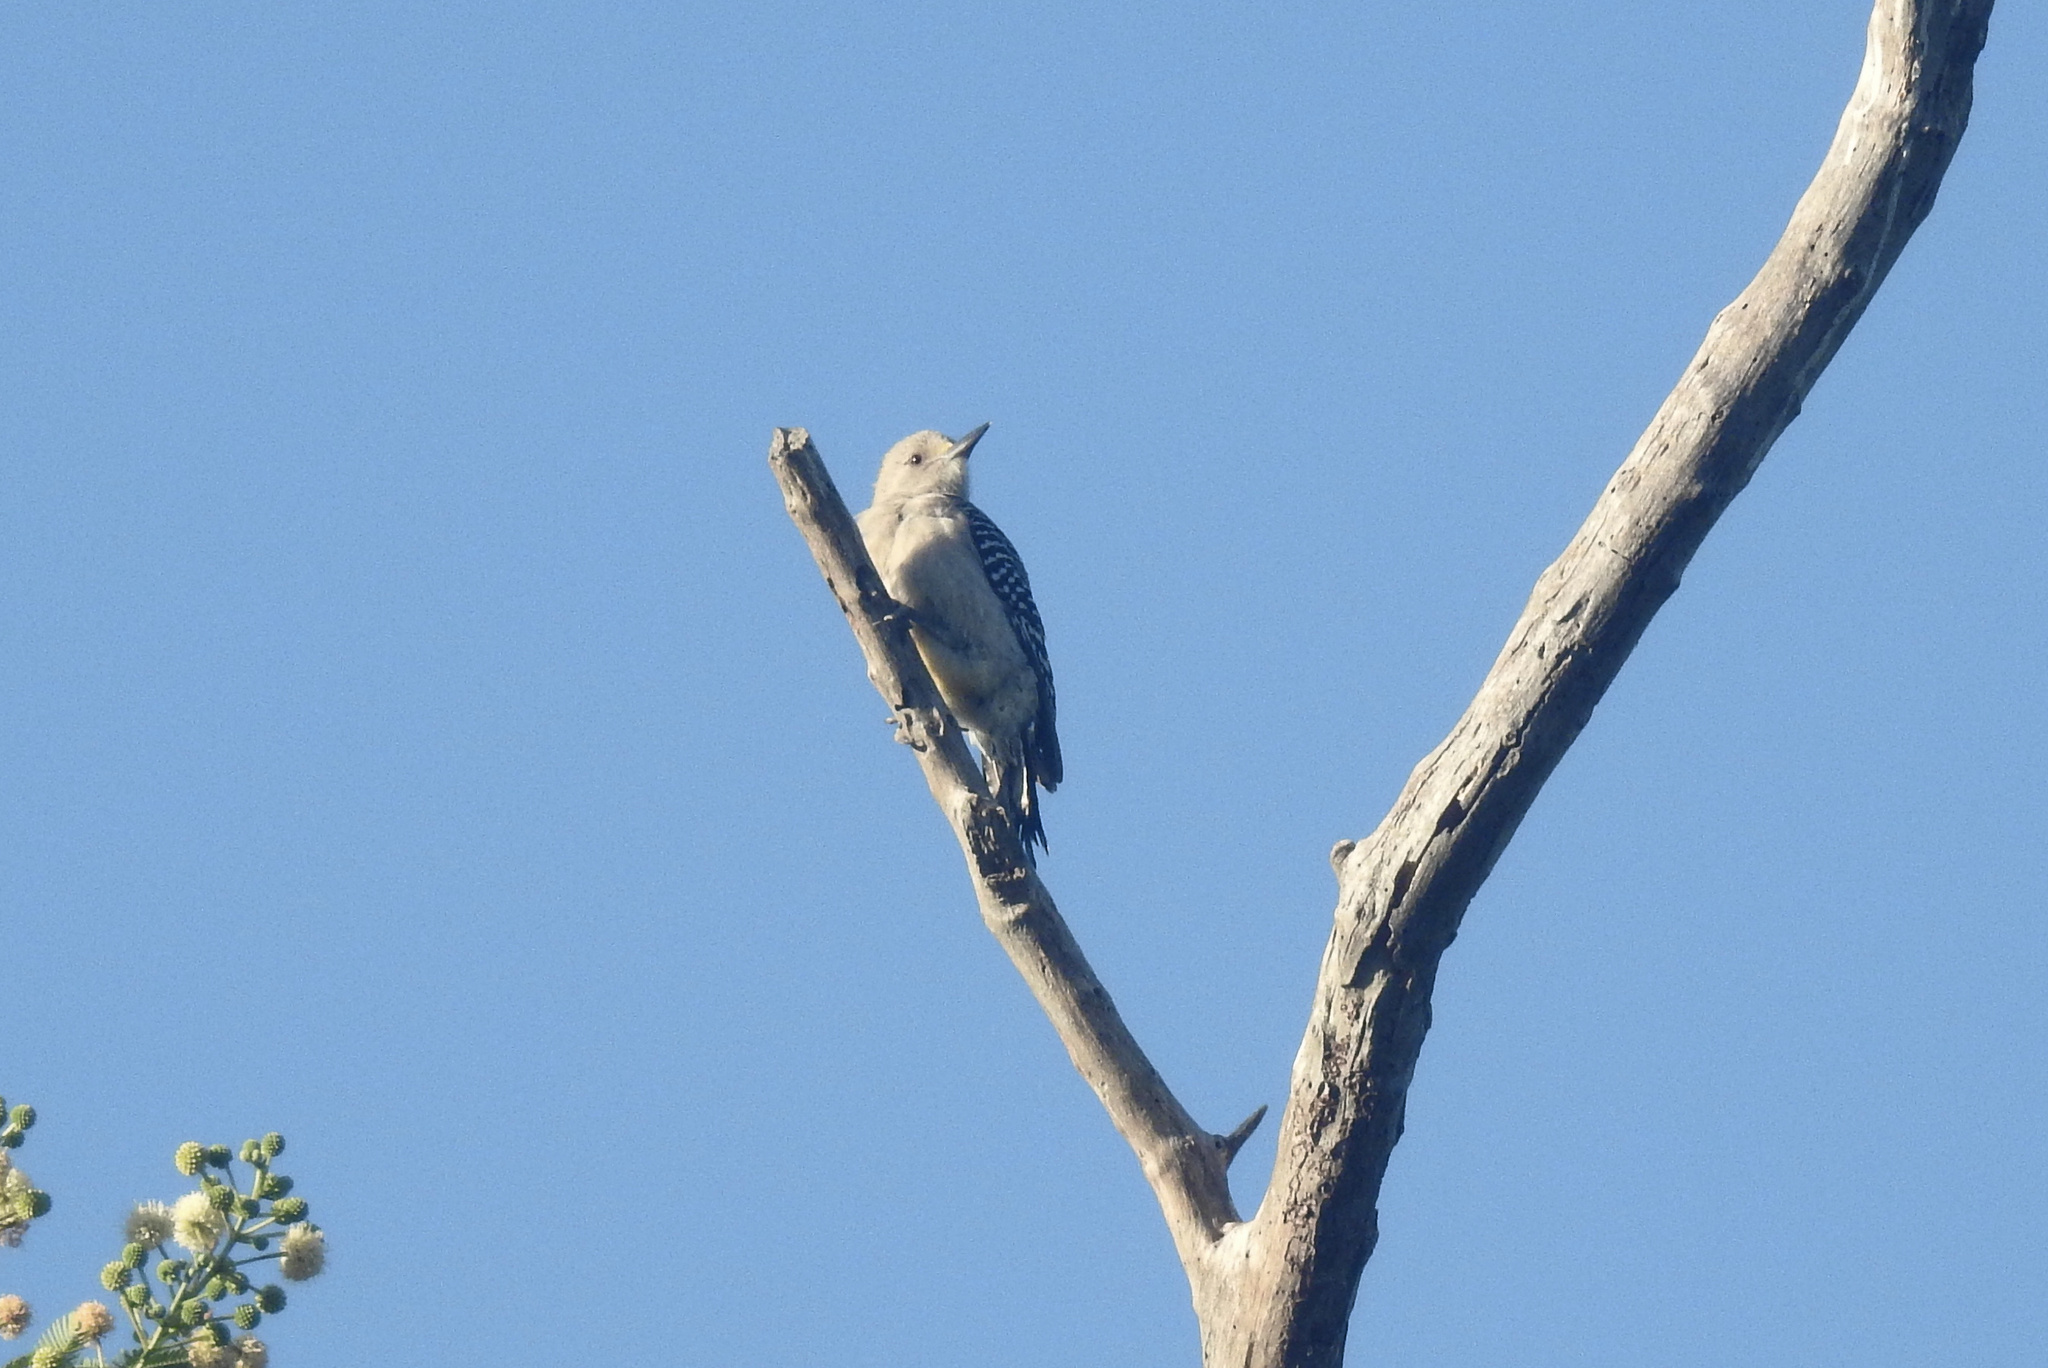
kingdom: Animalia
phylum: Chordata
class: Aves
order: Piciformes
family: Picidae
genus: Melanerpes
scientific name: Melanerpes aurifrons
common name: Golden-fronted woodpecker
